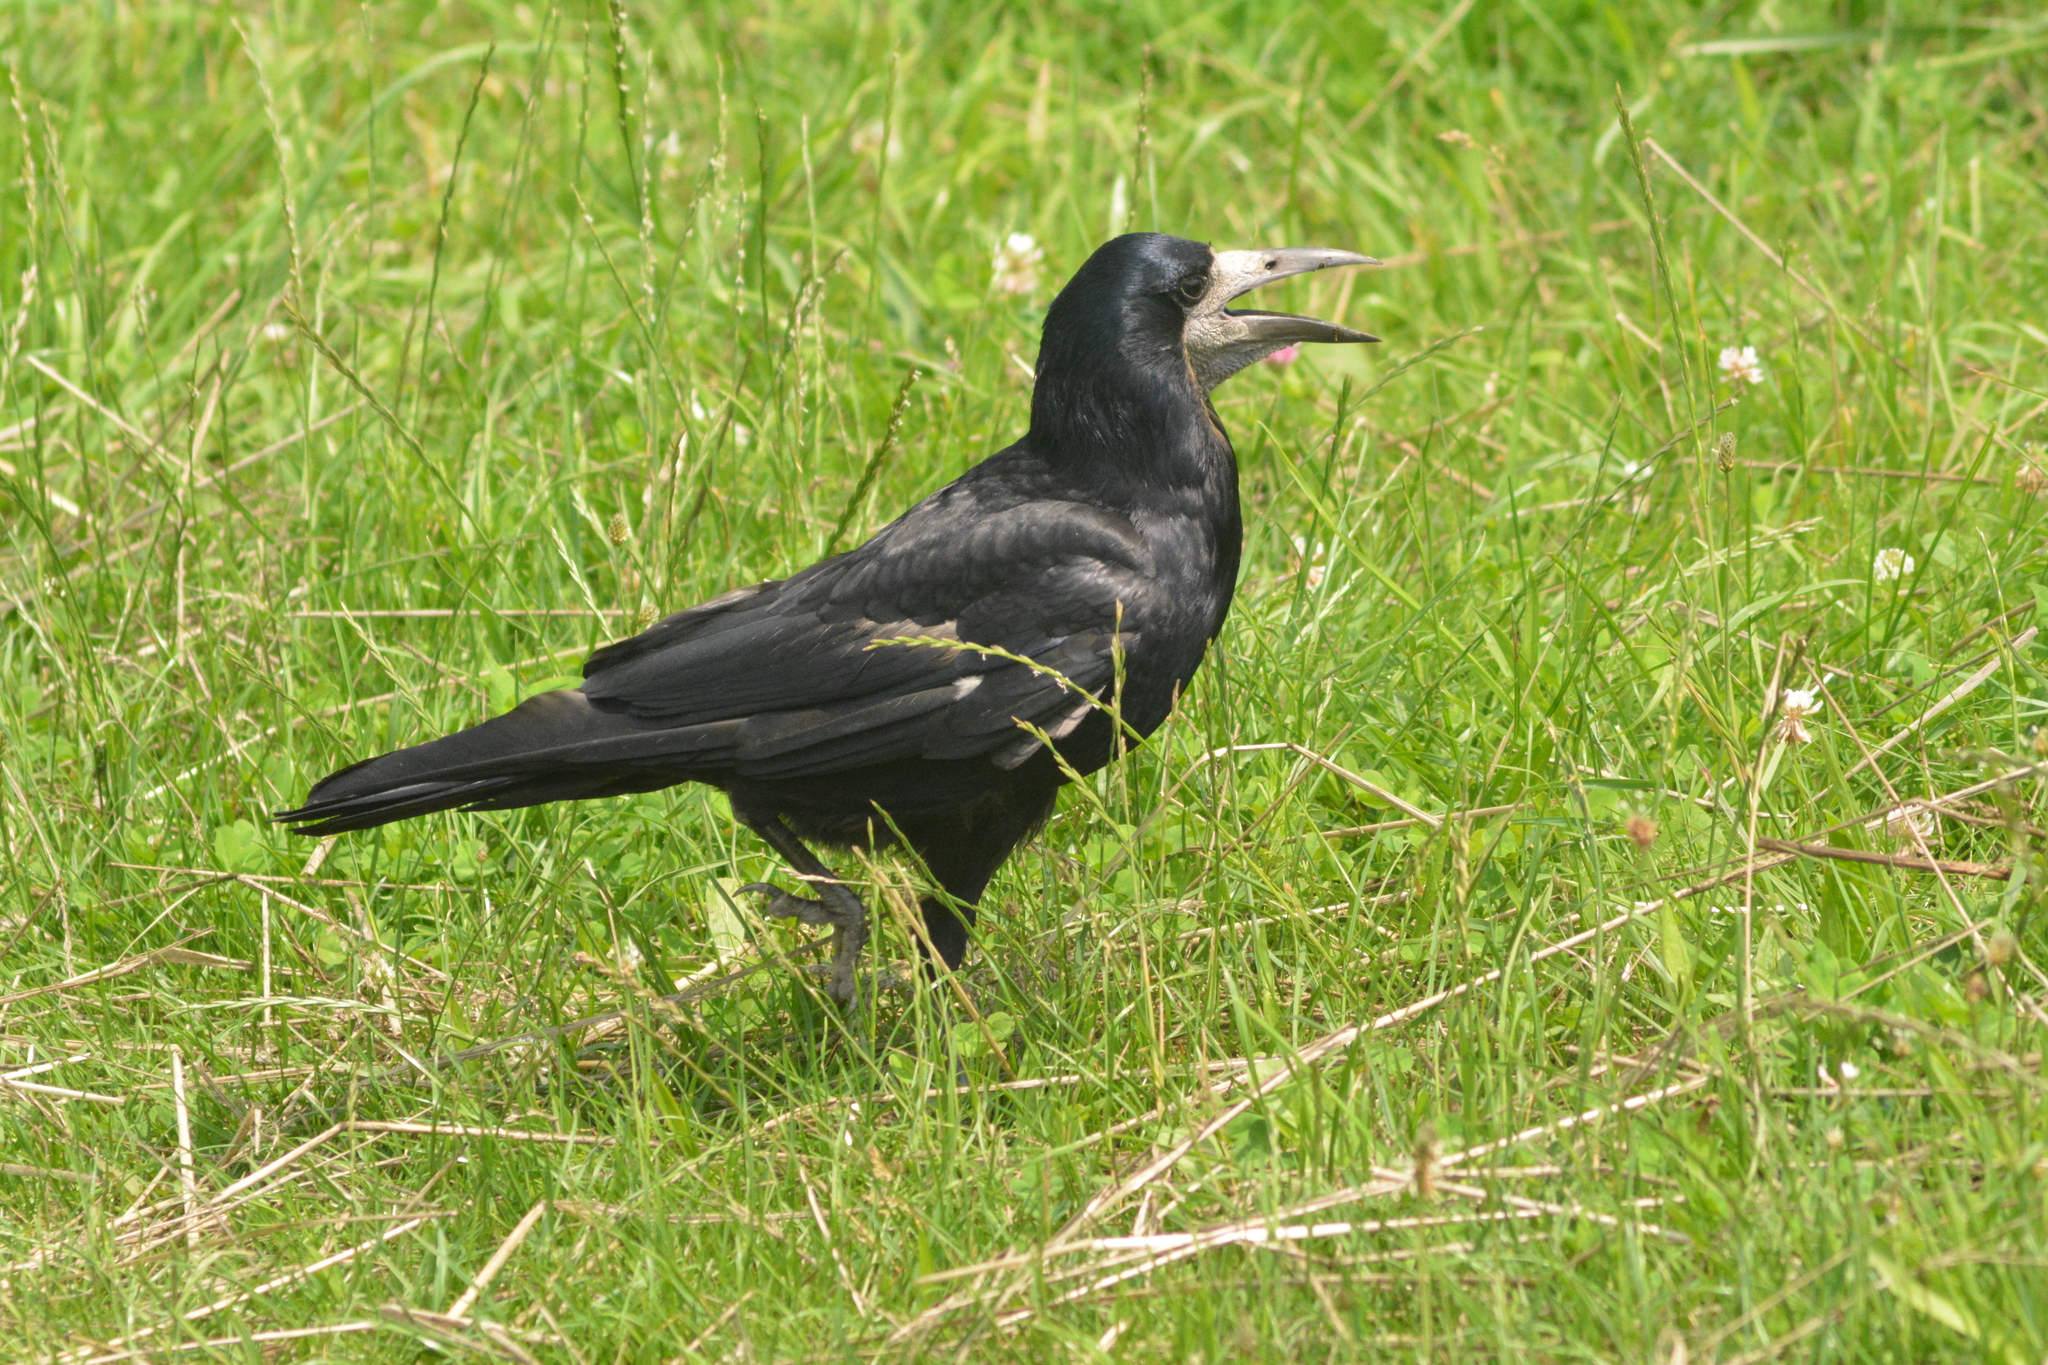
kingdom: Animalia
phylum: Chordata
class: Aves
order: Passeriformes
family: Corvidae
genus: Corvus
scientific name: Corvus frugilegus
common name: Rook
